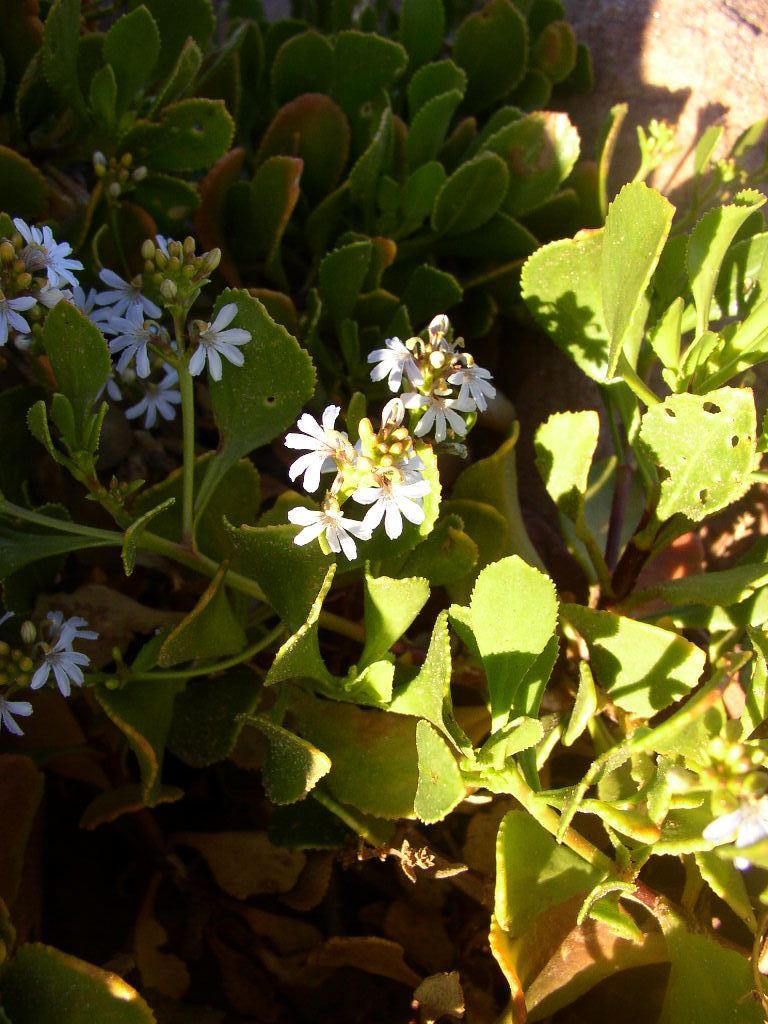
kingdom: Plantae
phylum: Tracheophyta
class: Magnoliopsida
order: Asterales
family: Goodeniaceae
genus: Scaevola
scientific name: Scaevola crassifolia
